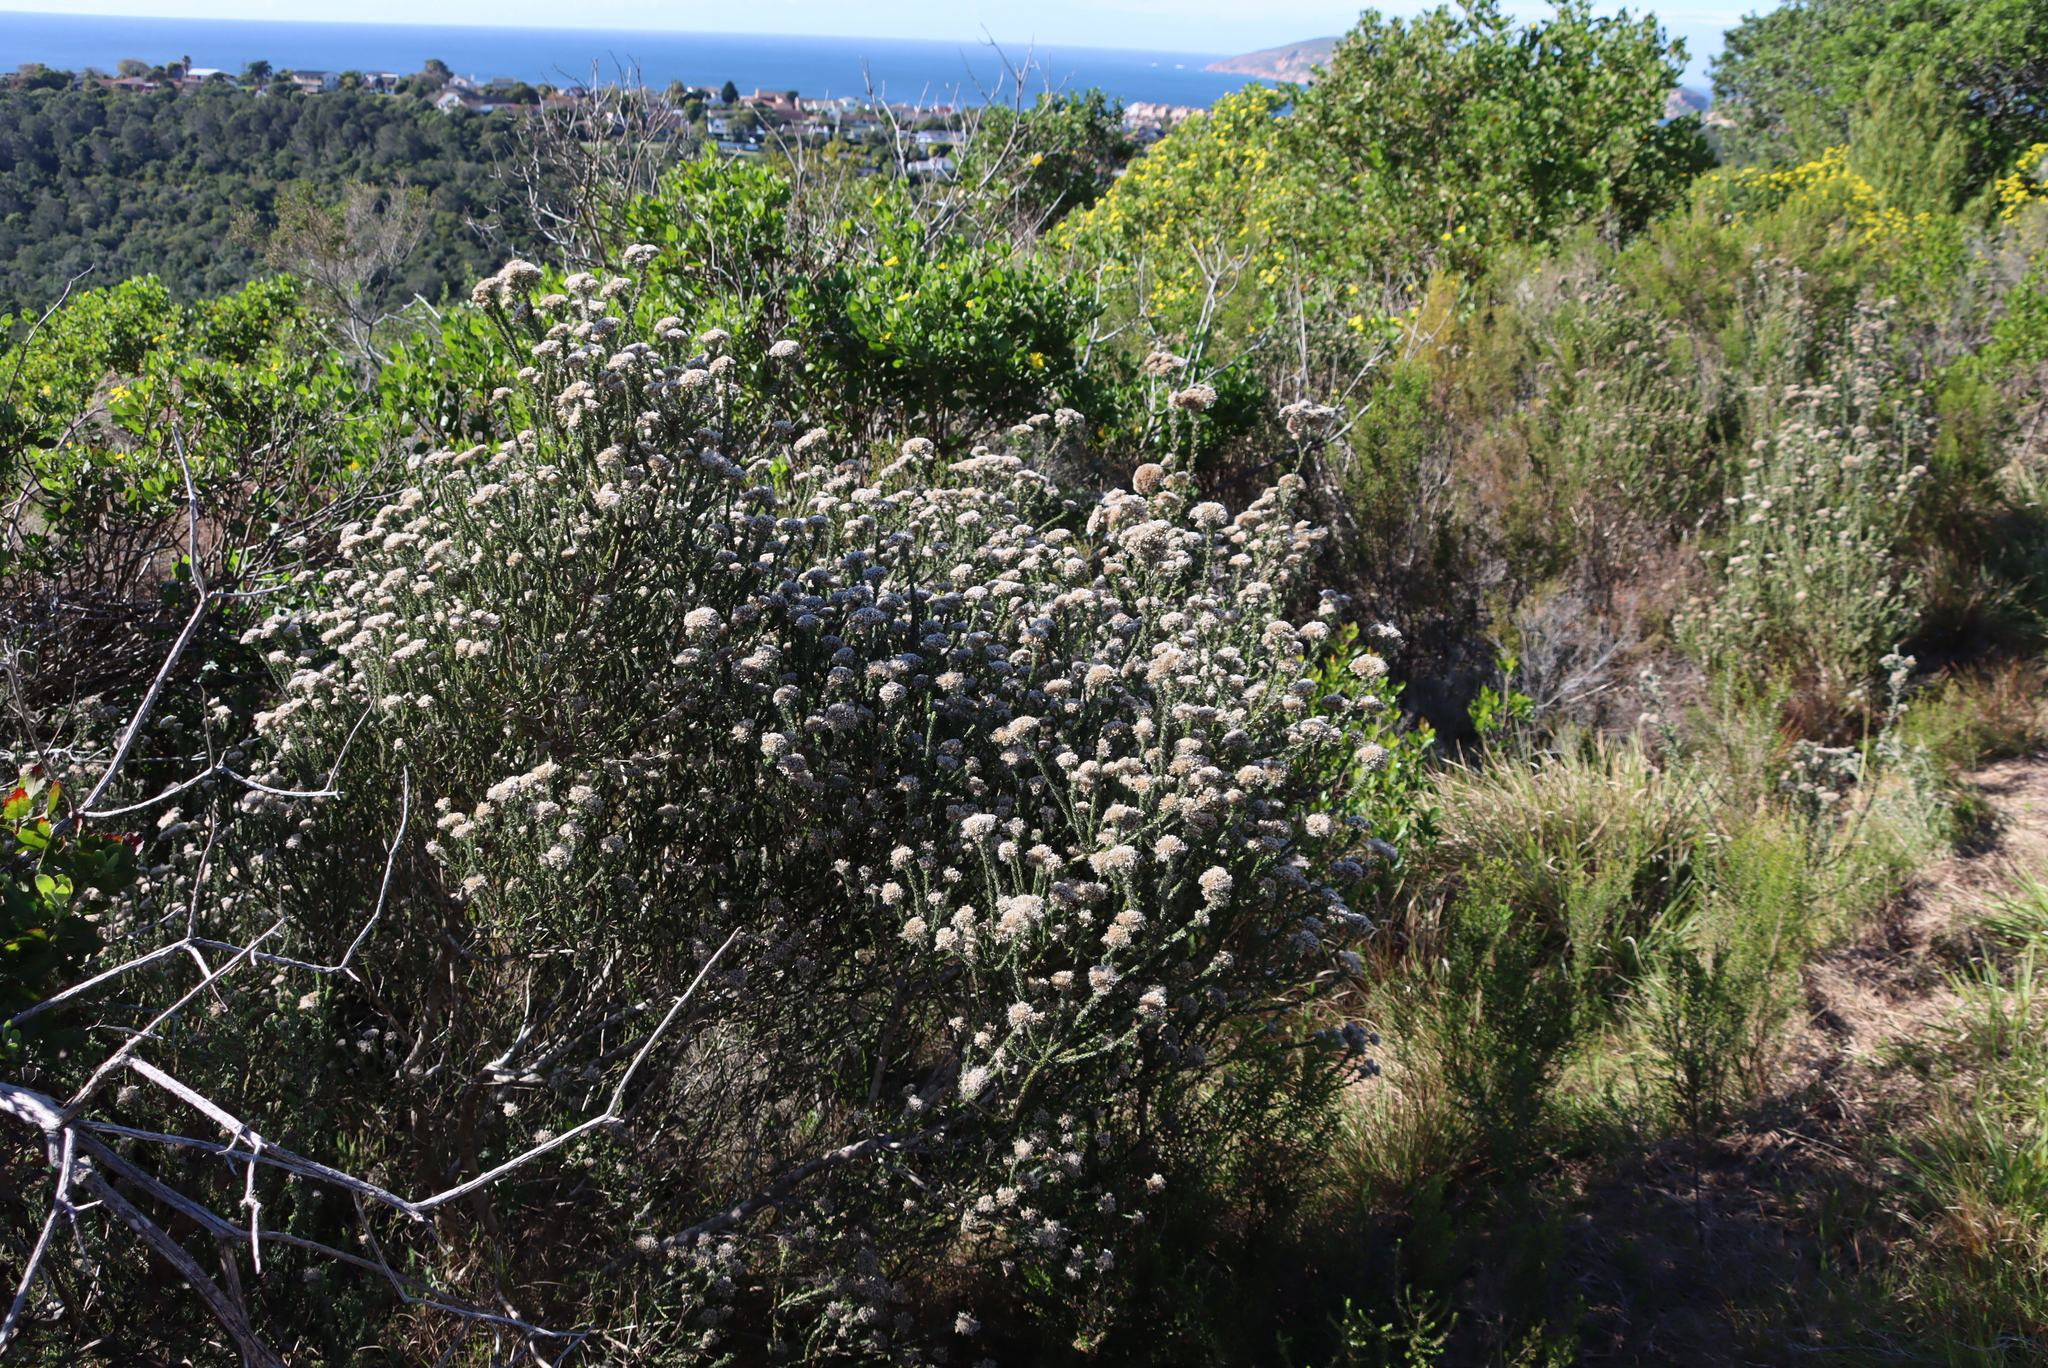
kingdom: Plantae
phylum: Tracheophyta
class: Magnoliopsida
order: Asterales
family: Asteraceae
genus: Metalasia
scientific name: Metalasia pungens
